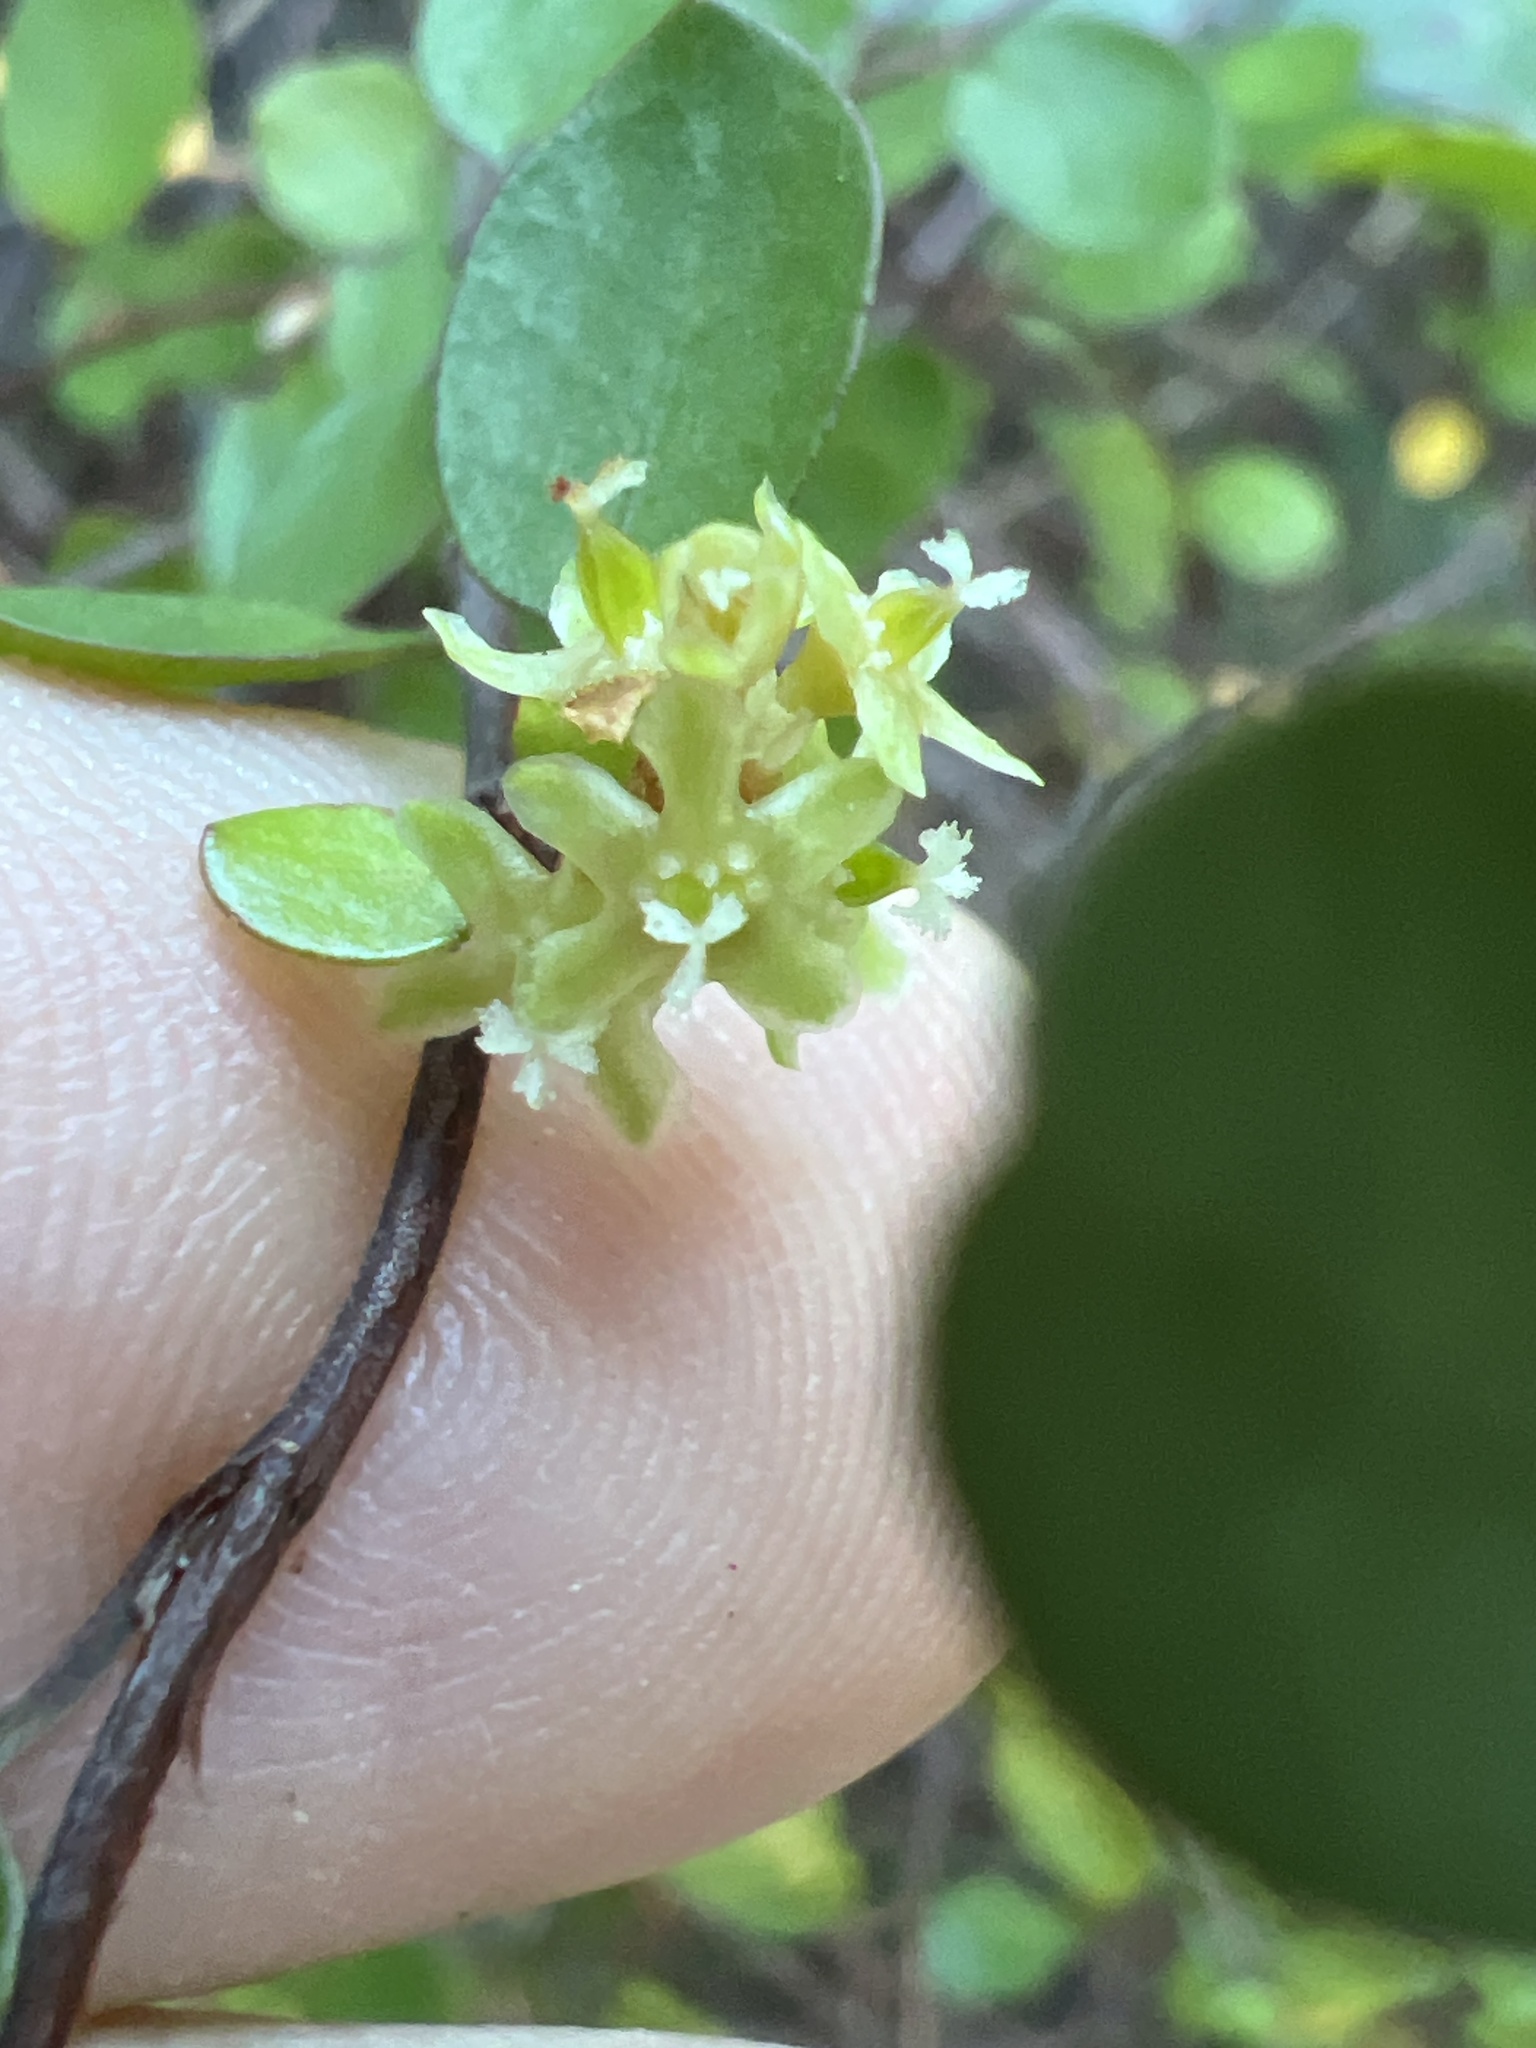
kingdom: Plantae
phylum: Tracheophyta
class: Magnoliopsida
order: Caryophyllales
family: Polygonaceae
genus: Muehlenbeckia
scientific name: Muehlenbeckia axillaris
